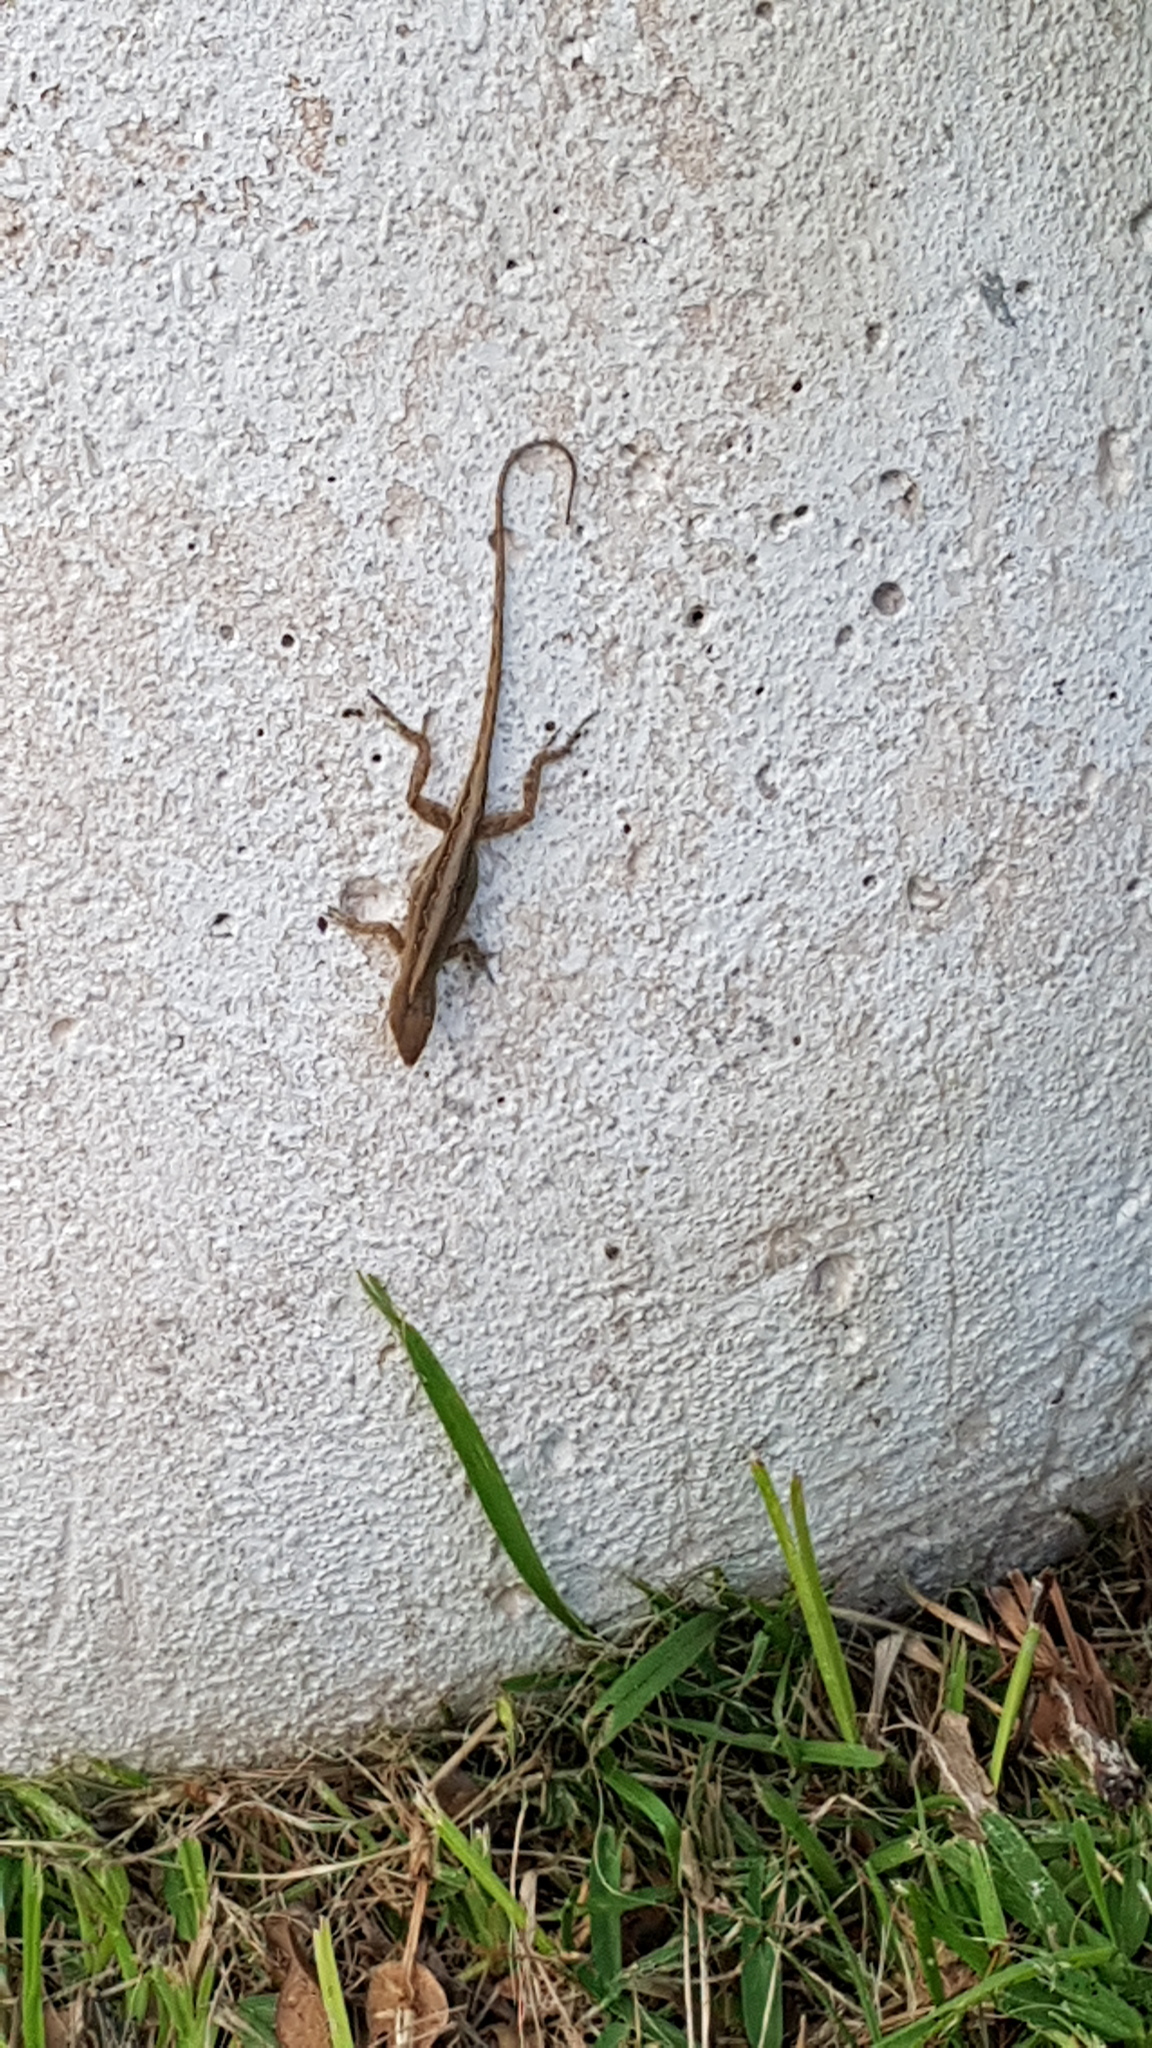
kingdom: Animalia
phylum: Chordata
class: Squamata
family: Dactyloidae
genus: Anolis
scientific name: Anolis sagrei
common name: Brown anole
